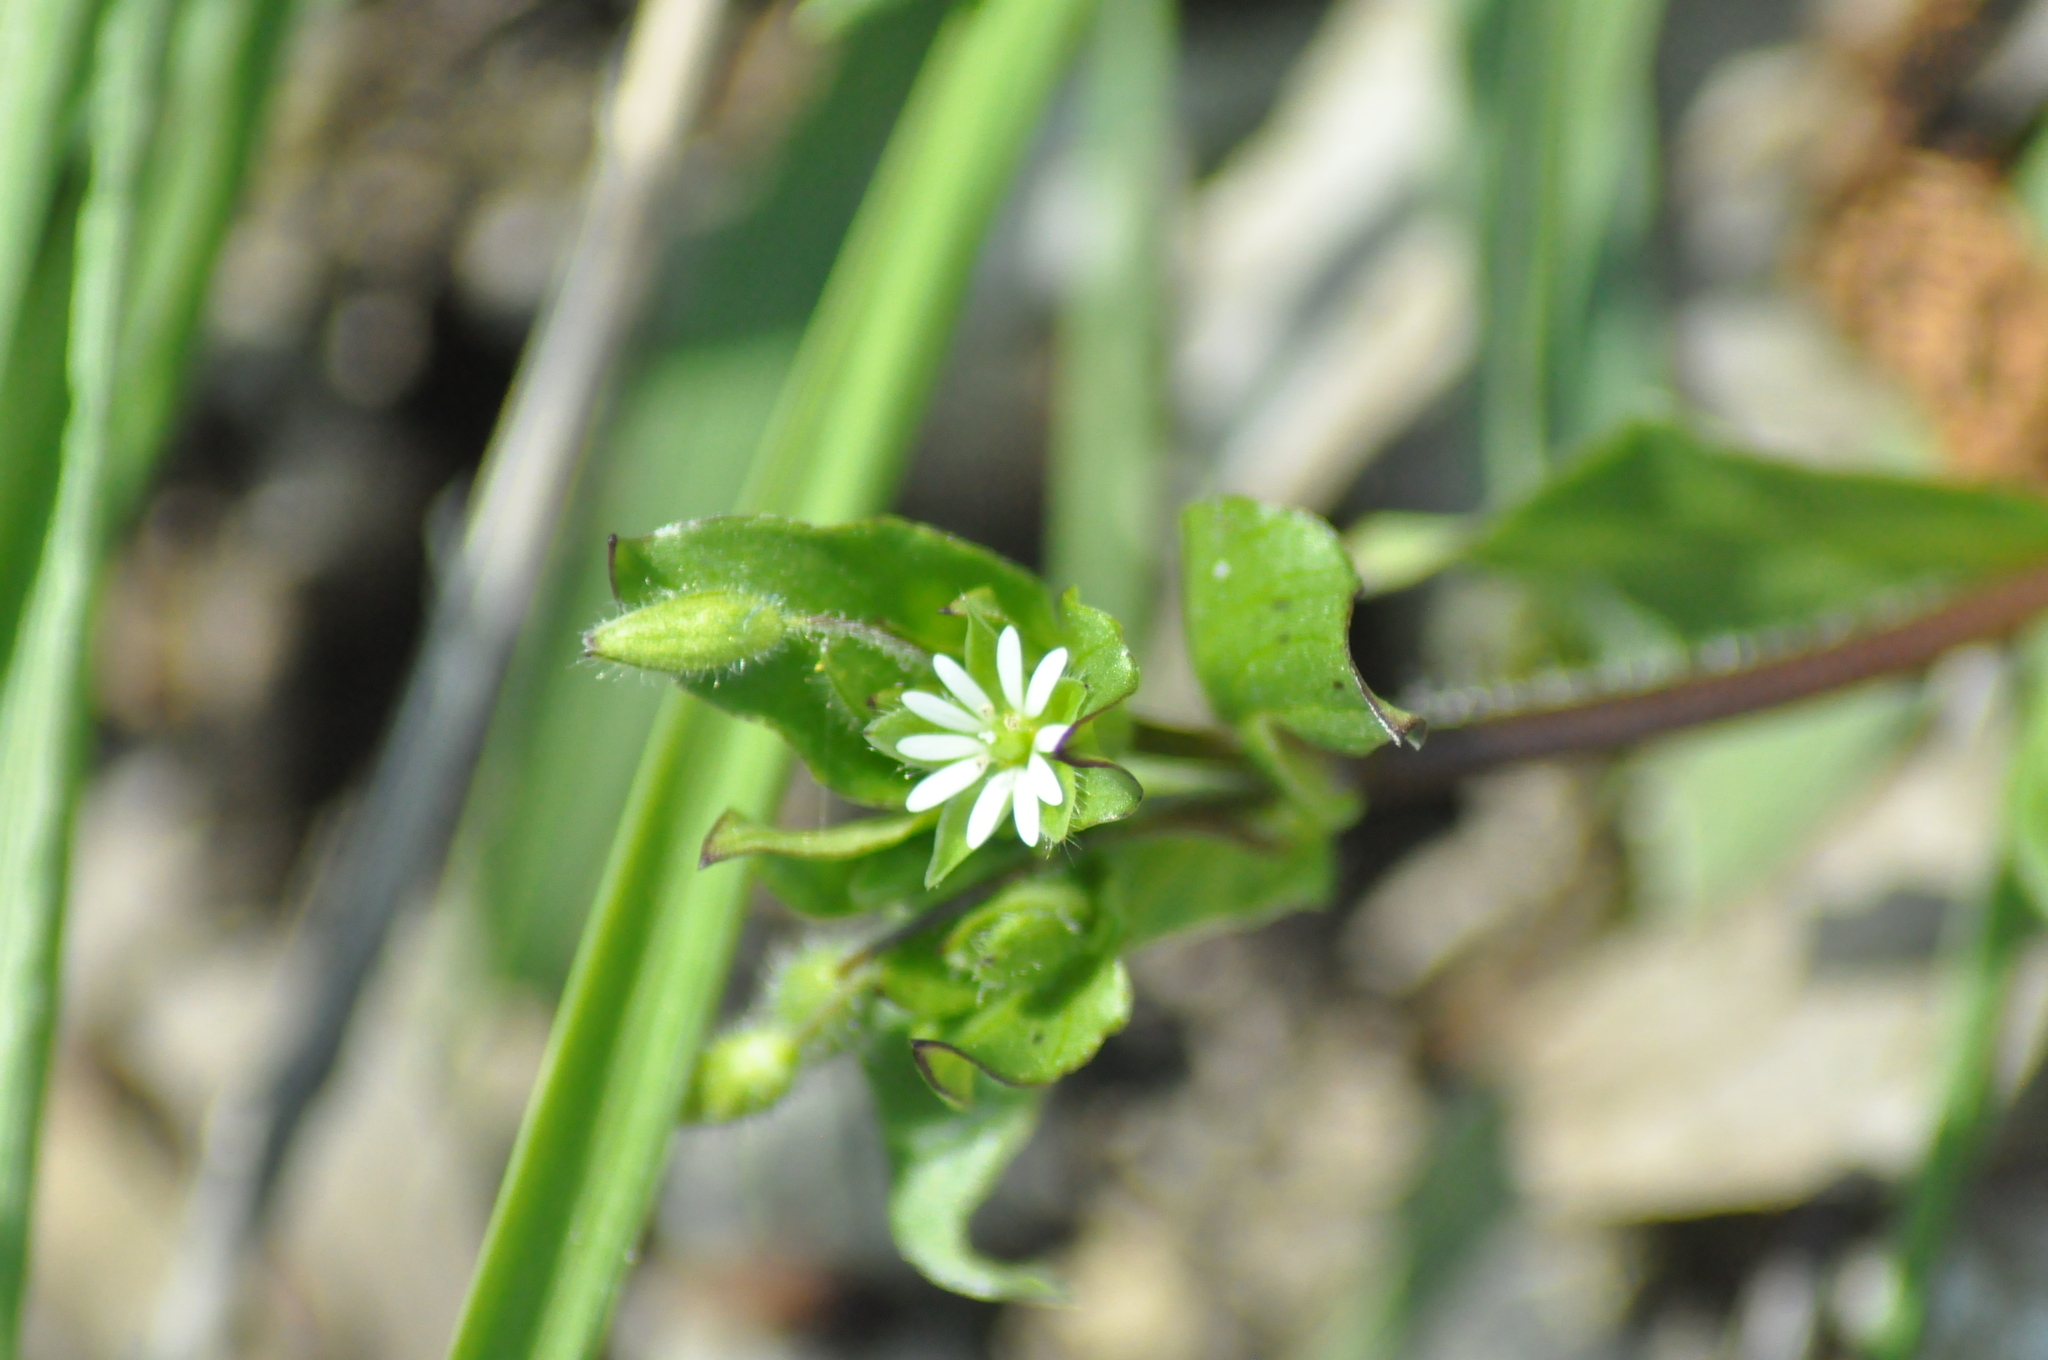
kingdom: Plantae
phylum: Tracheophyta
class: Magnoliopsida
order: Caryophyllales
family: Caryophyllaceae
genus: Stellaria
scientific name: Stellaria media
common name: Common chickweed
